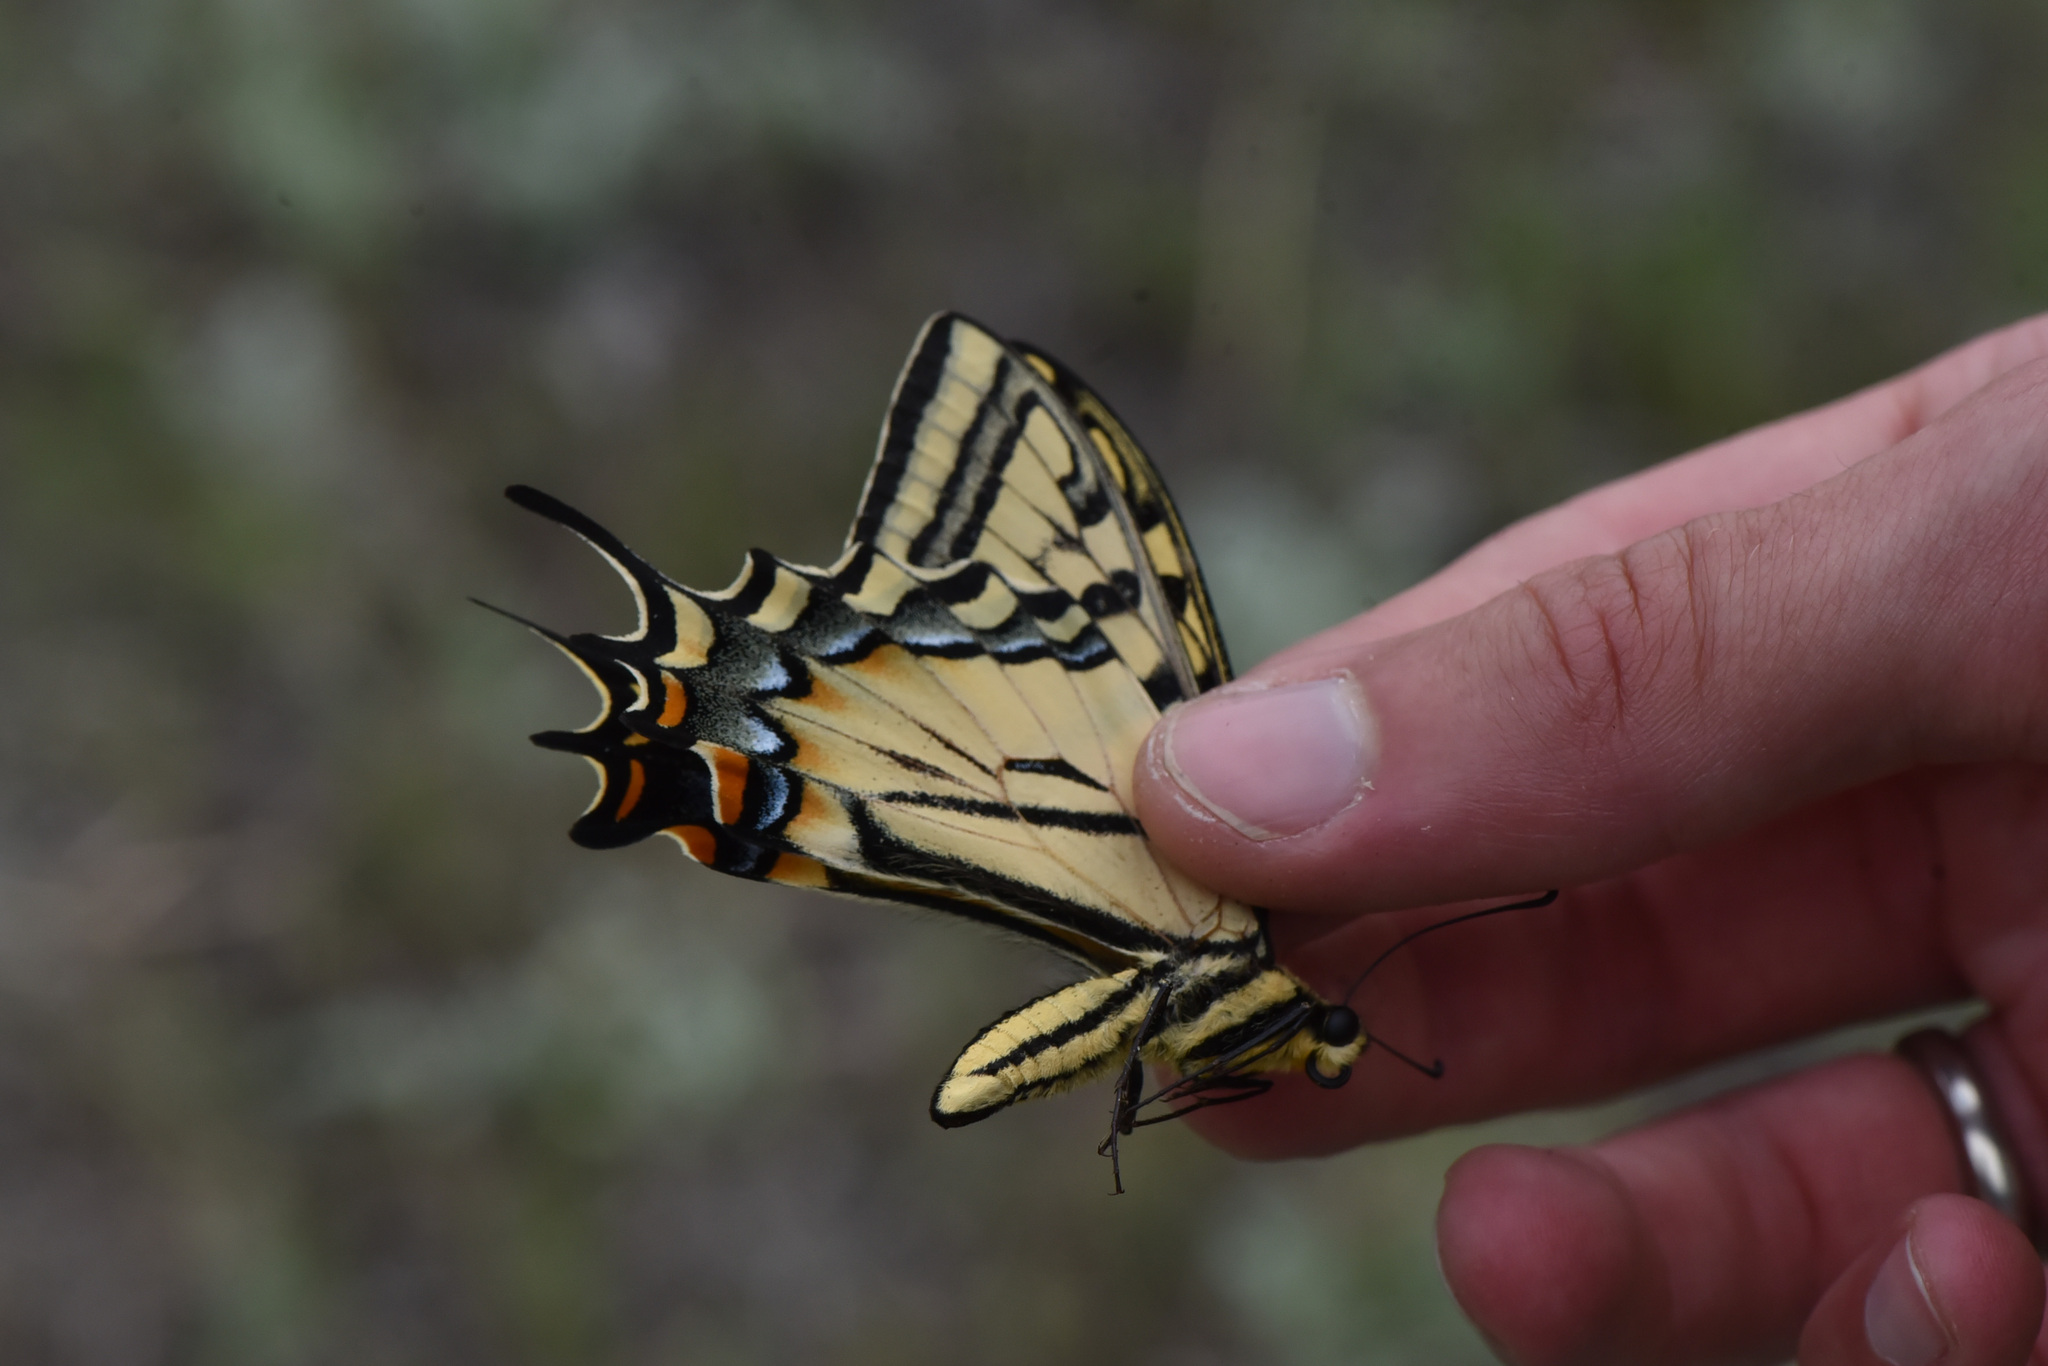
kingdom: Animalia
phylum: Arthropoda
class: Insecta
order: Lepidoptera
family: Papilionidae
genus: Papilio
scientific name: Papilio multicaudata
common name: Two-tailed tiger swallowtail
